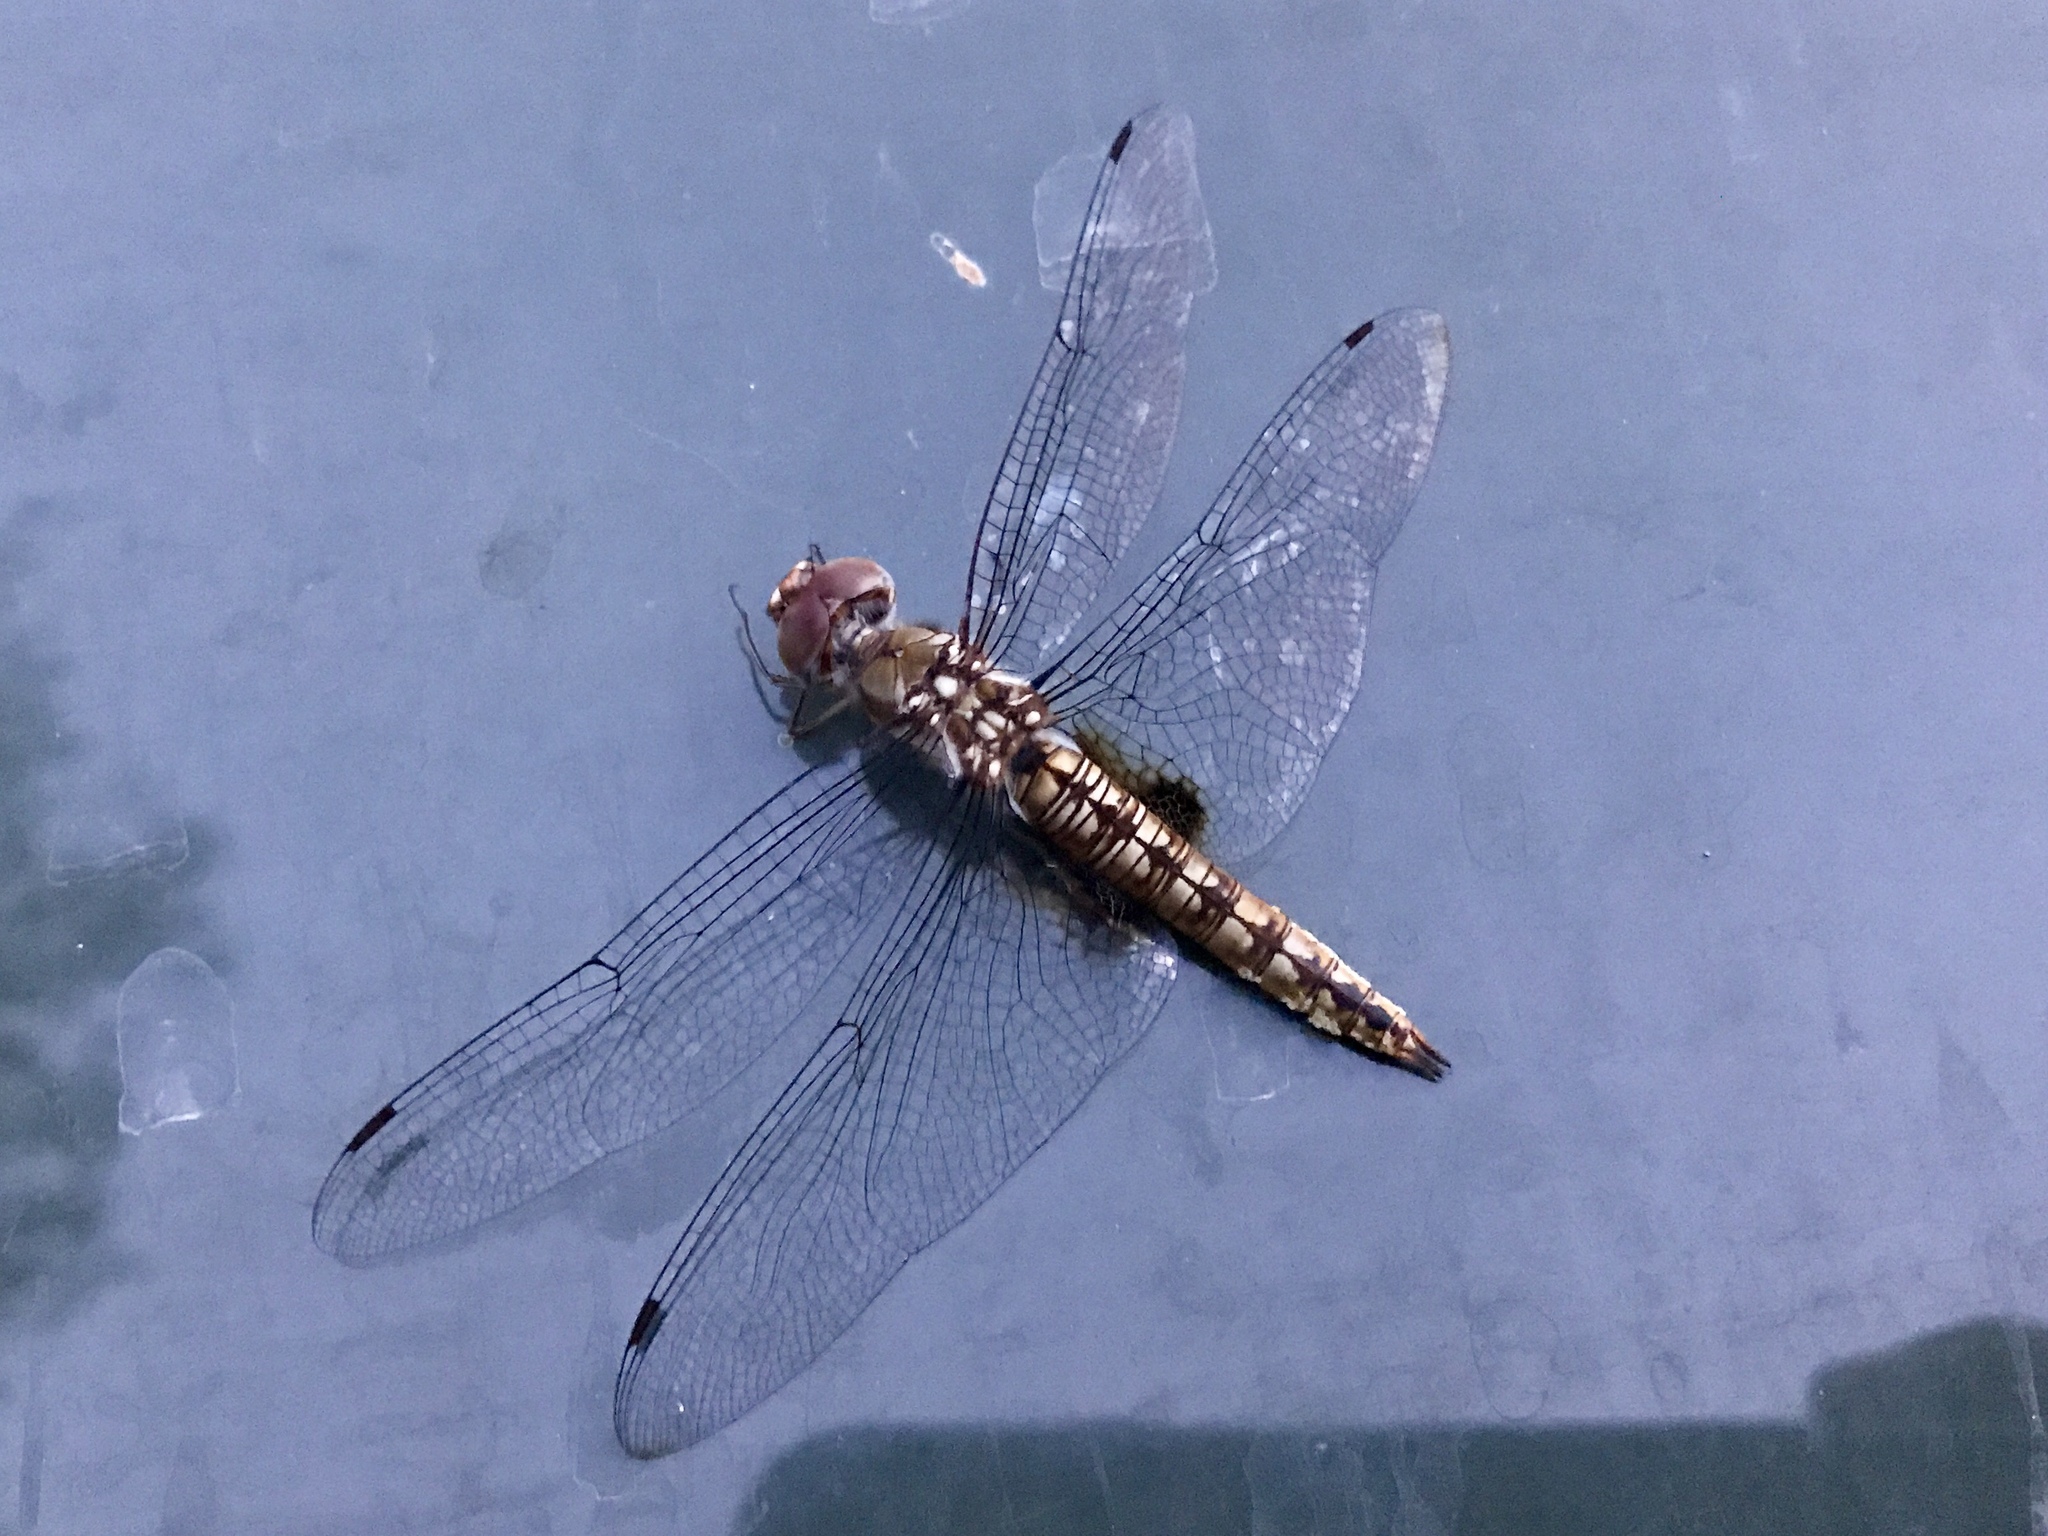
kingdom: Animalia
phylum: Arthropoda
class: Insecta
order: Odonata
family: Libellulidae
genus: Pantala
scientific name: Pantala hymenaea
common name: Spot-winged glider
